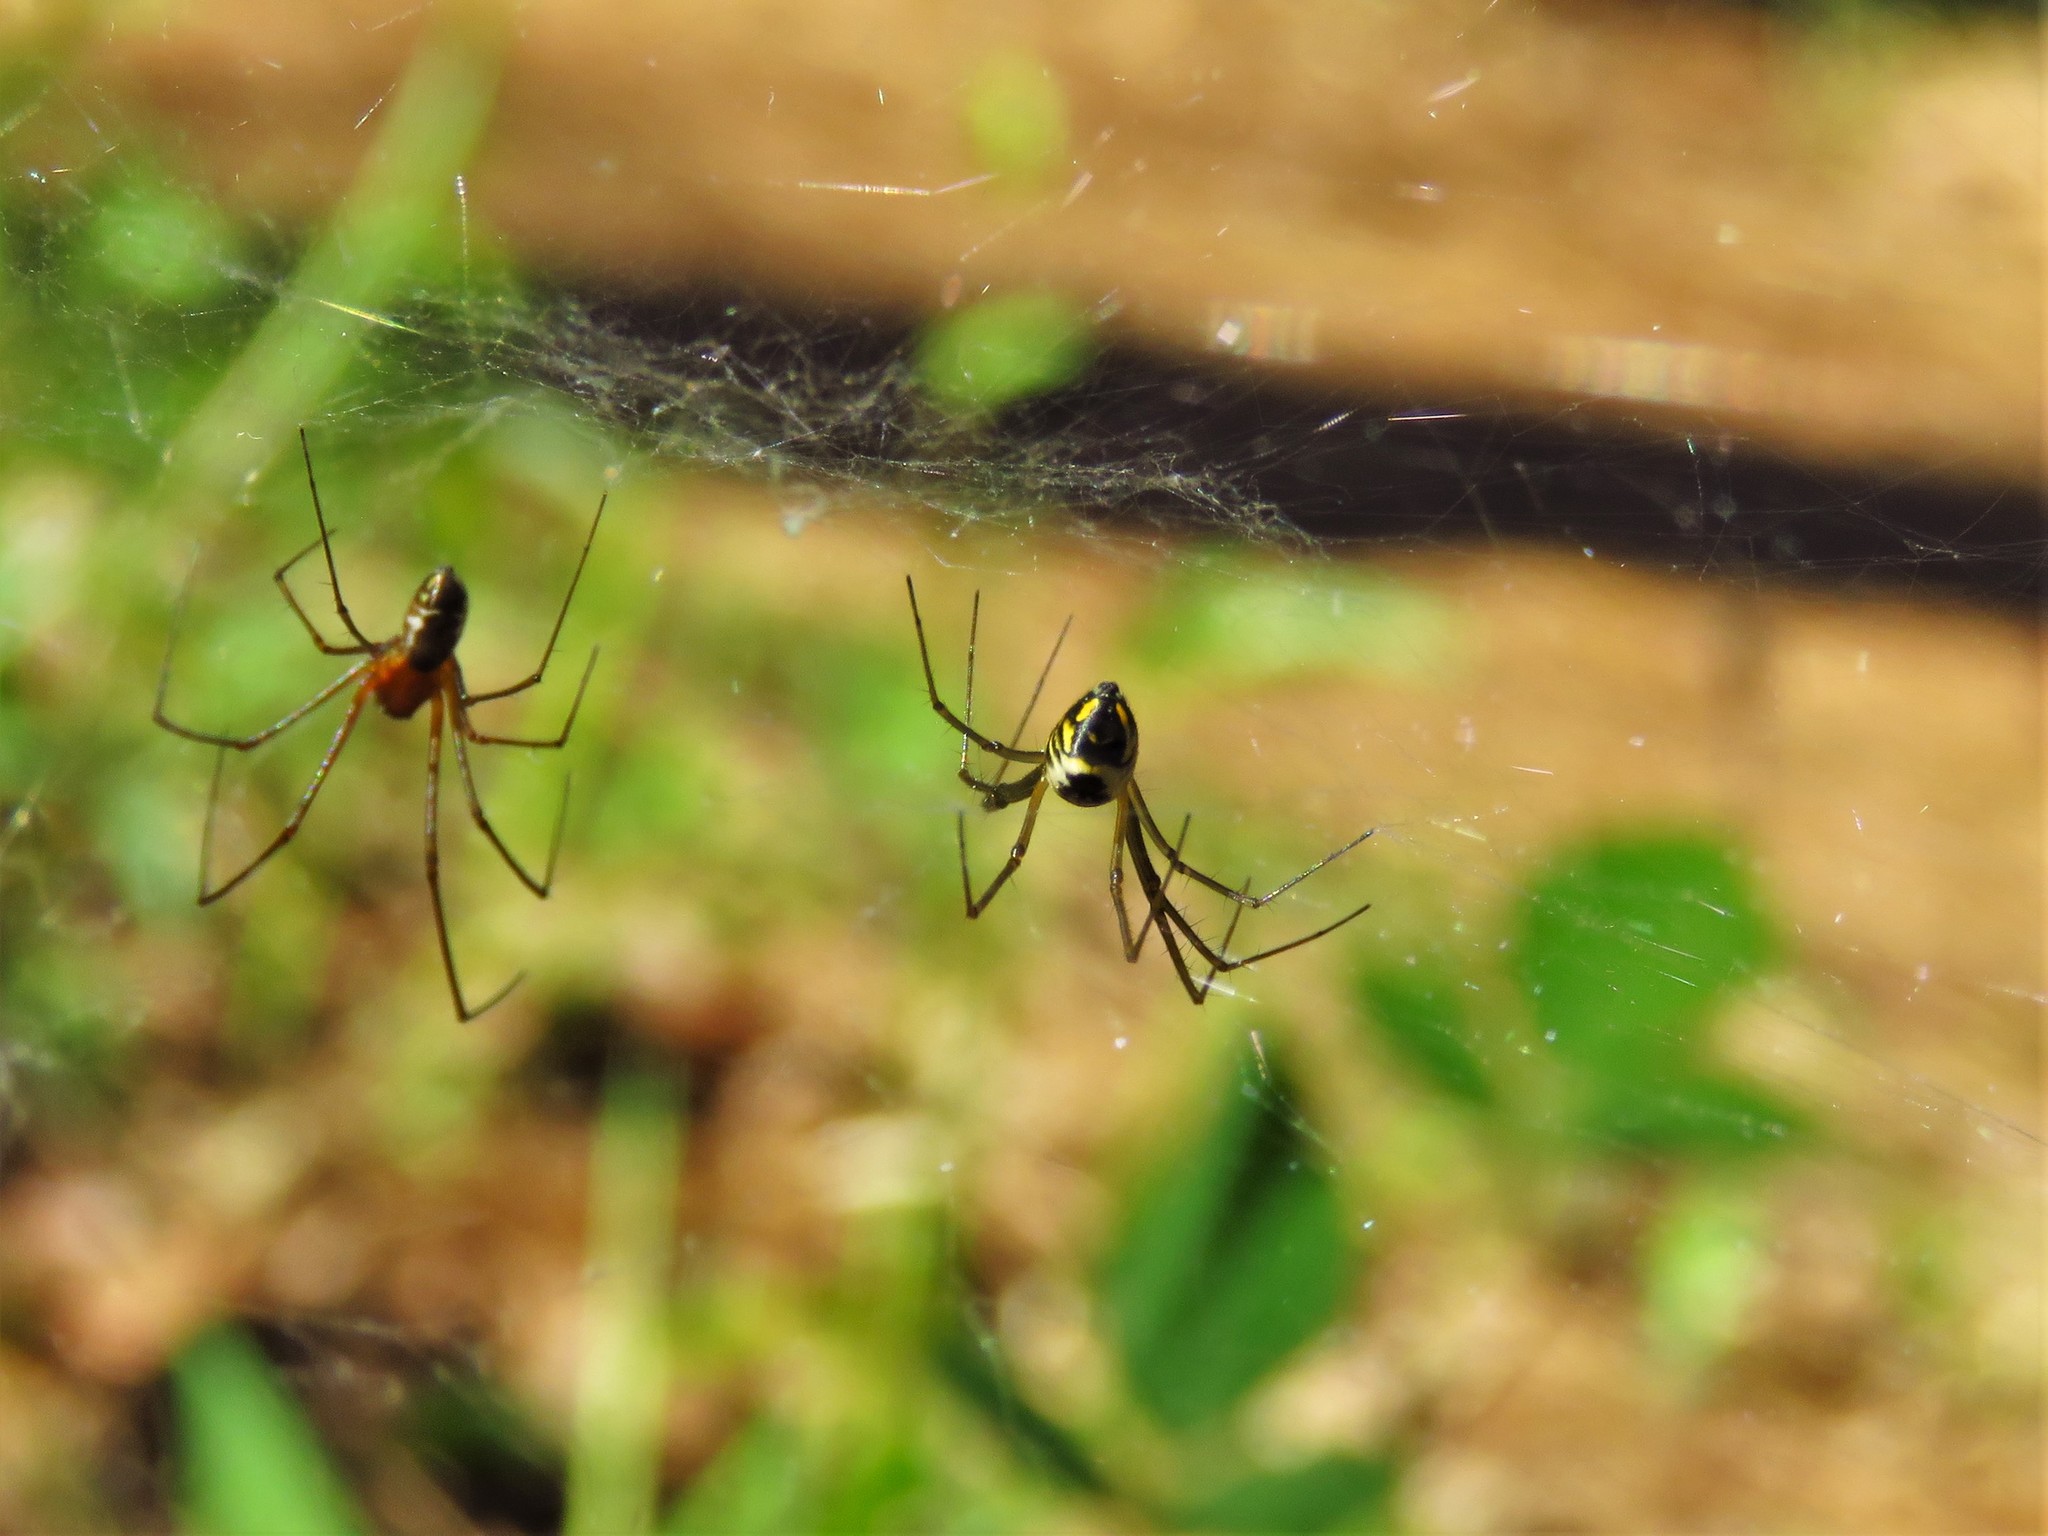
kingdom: Animalia
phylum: Arthropoda
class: Arachnida
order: Araneae
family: Linyphiidae
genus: Neriene
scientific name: Neriene radiata
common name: Filmy dome spider
